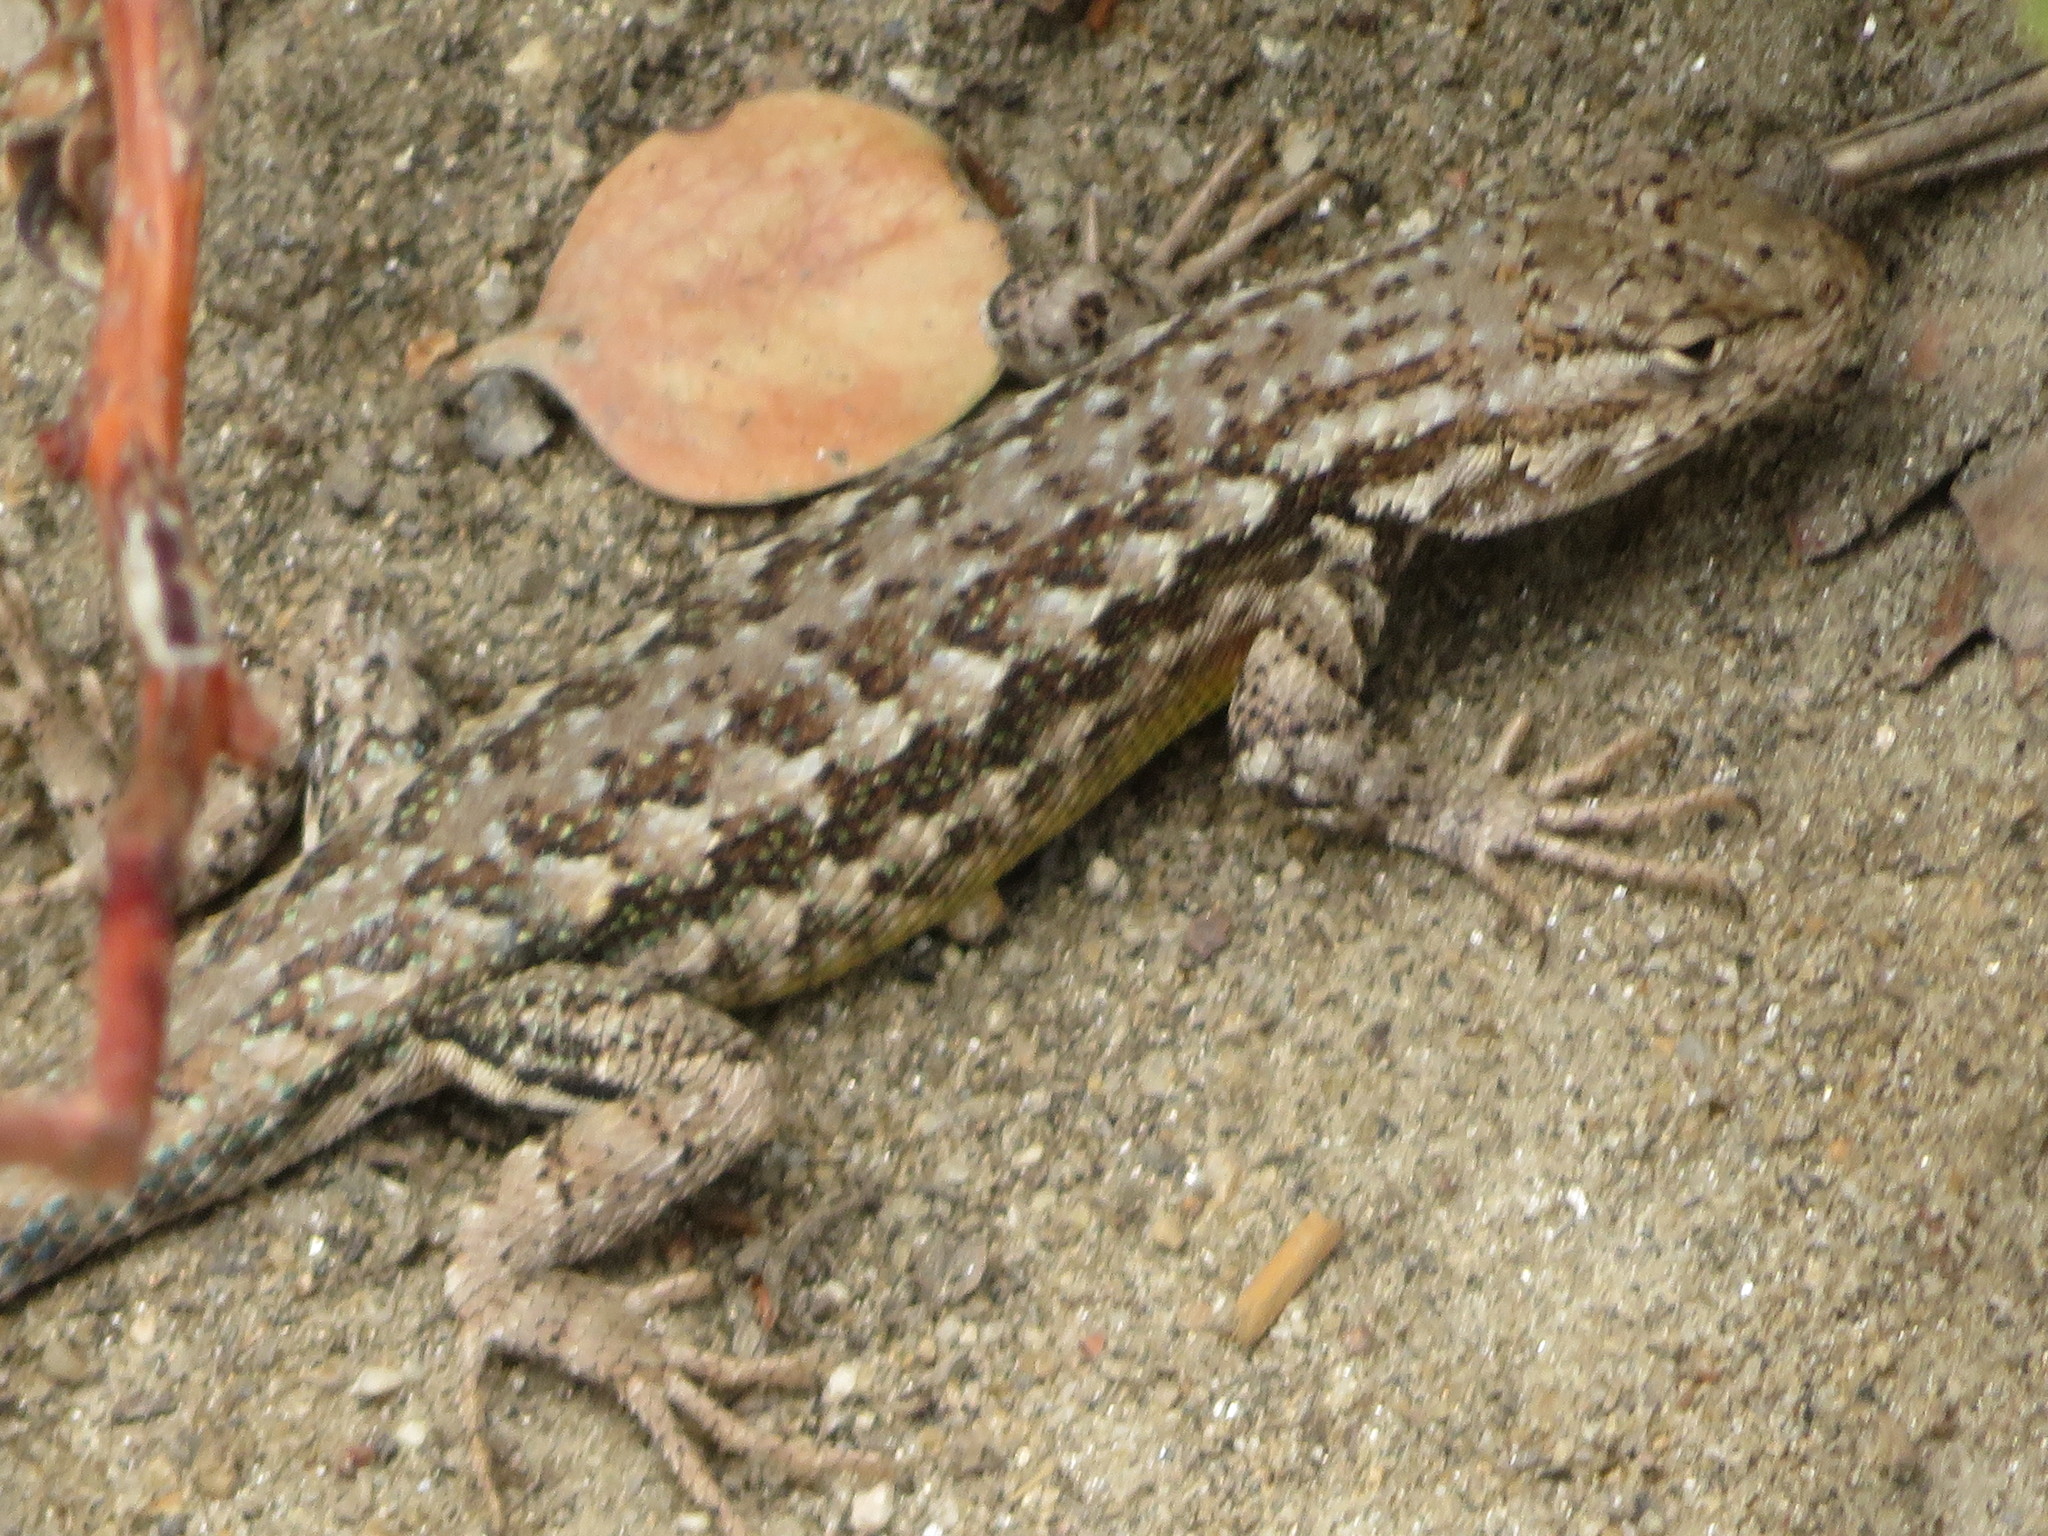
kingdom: Animalia
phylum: Chordata
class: Squamata
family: Phrynosomatidae
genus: Sceloporus
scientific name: Sceloporus graciosus
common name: Sagebrush lizard
